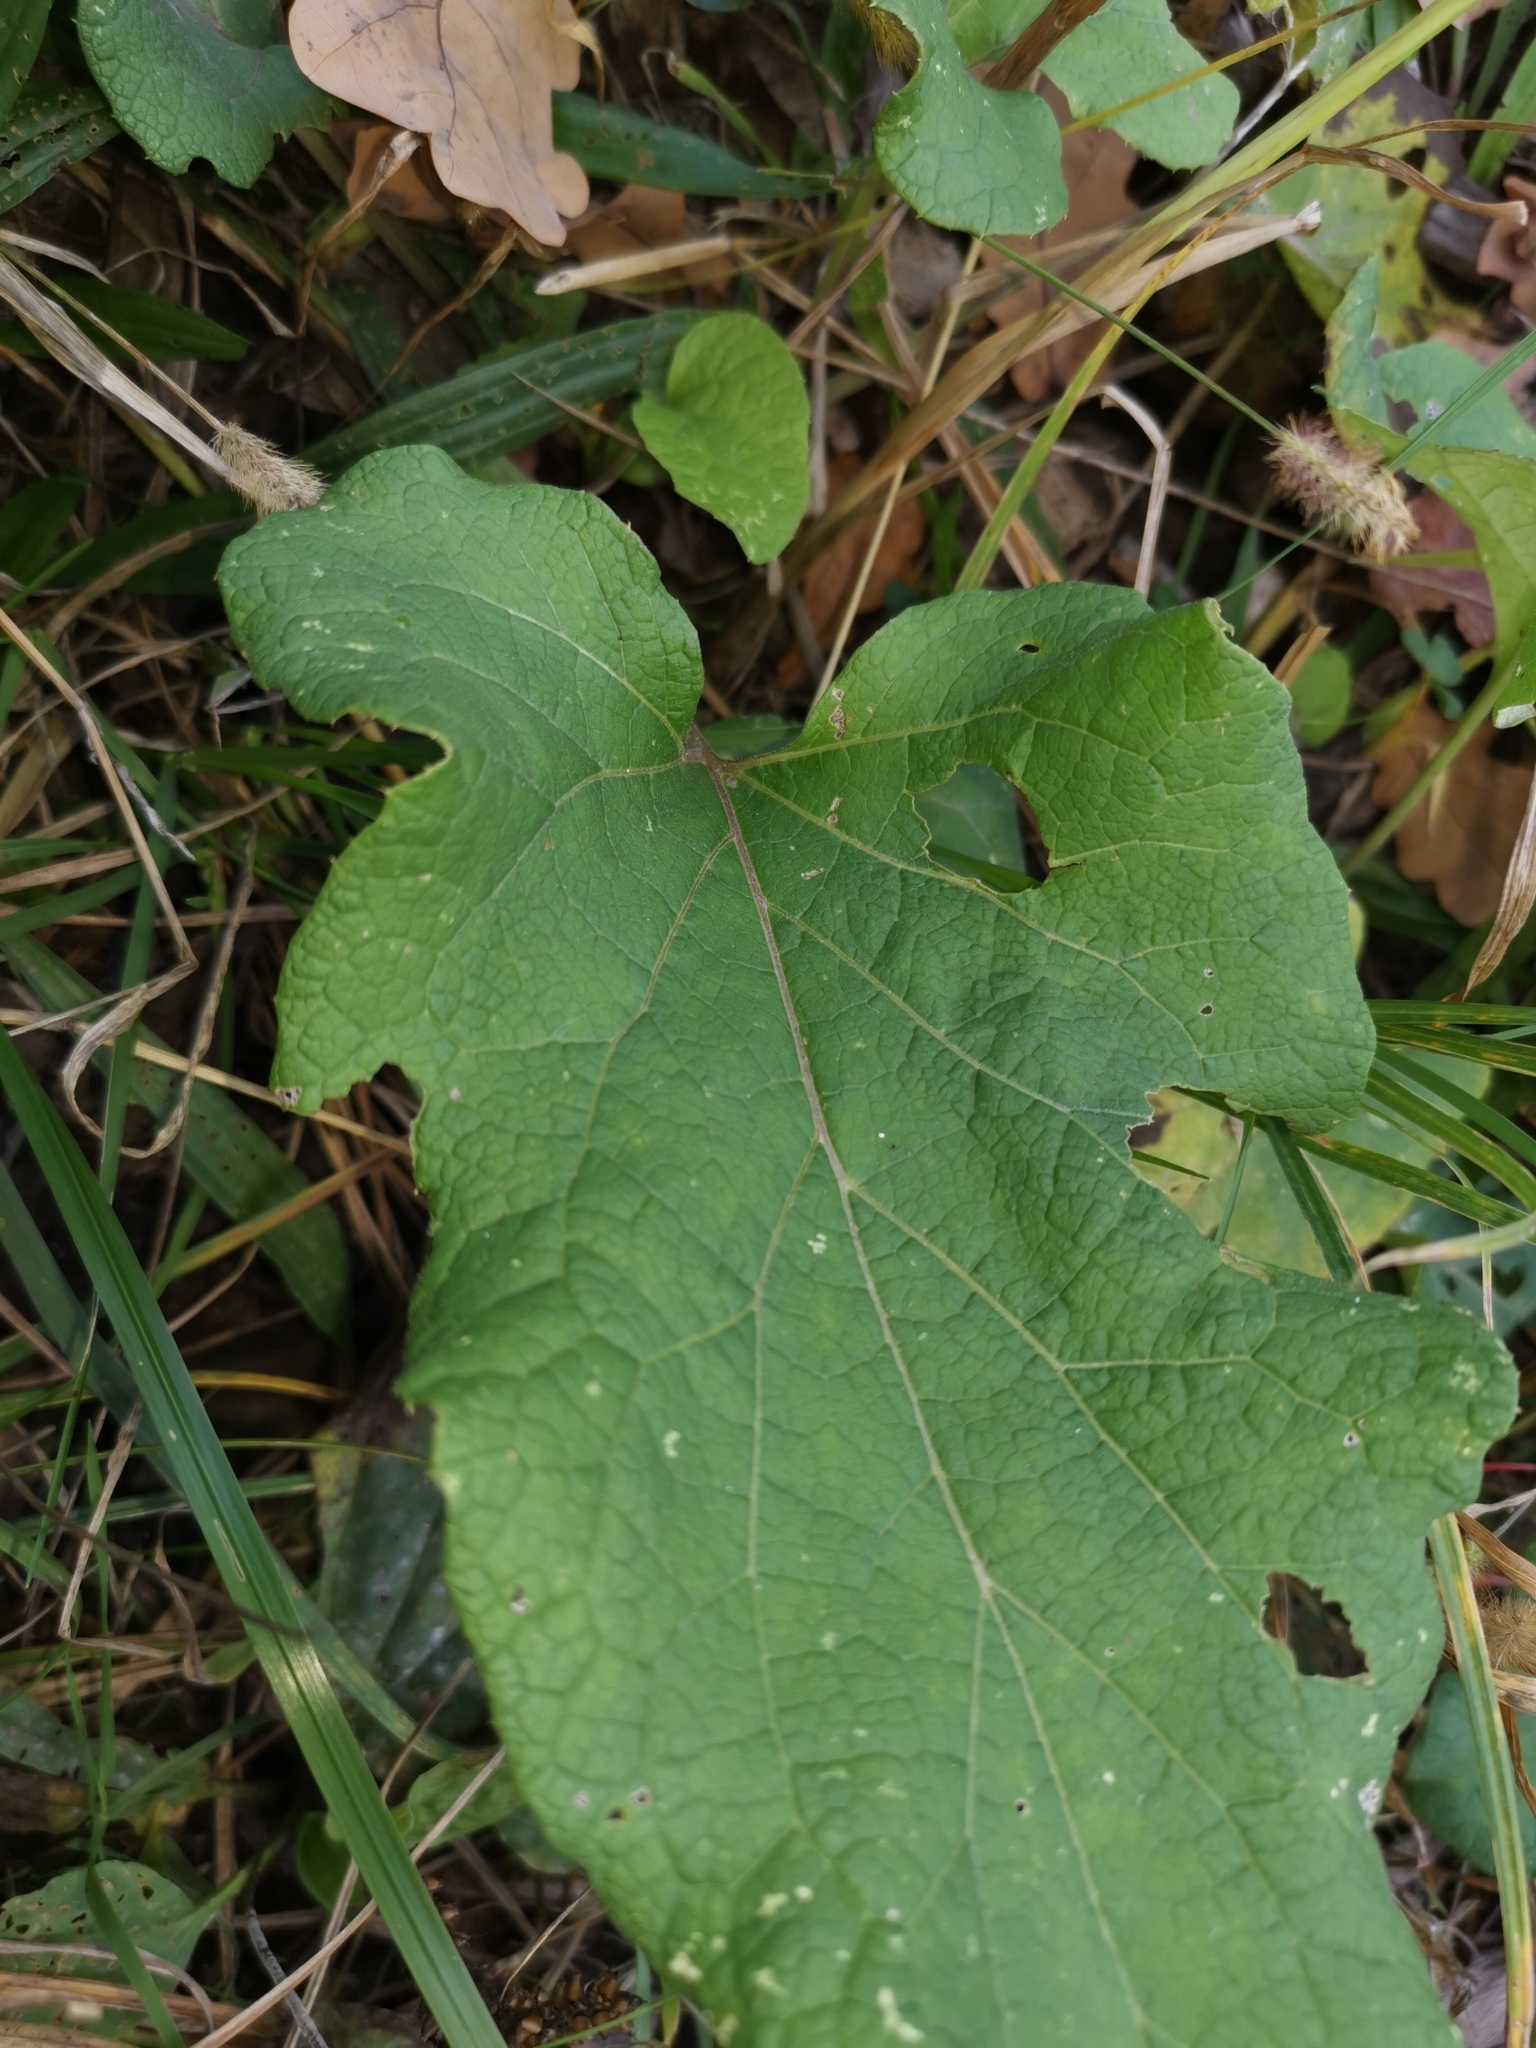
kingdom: Plantae
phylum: Tracheophyta
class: Magnoliopsida
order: Asterales
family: Asteraceae
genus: Arctium
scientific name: Arctium lappa
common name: Greater burdock
